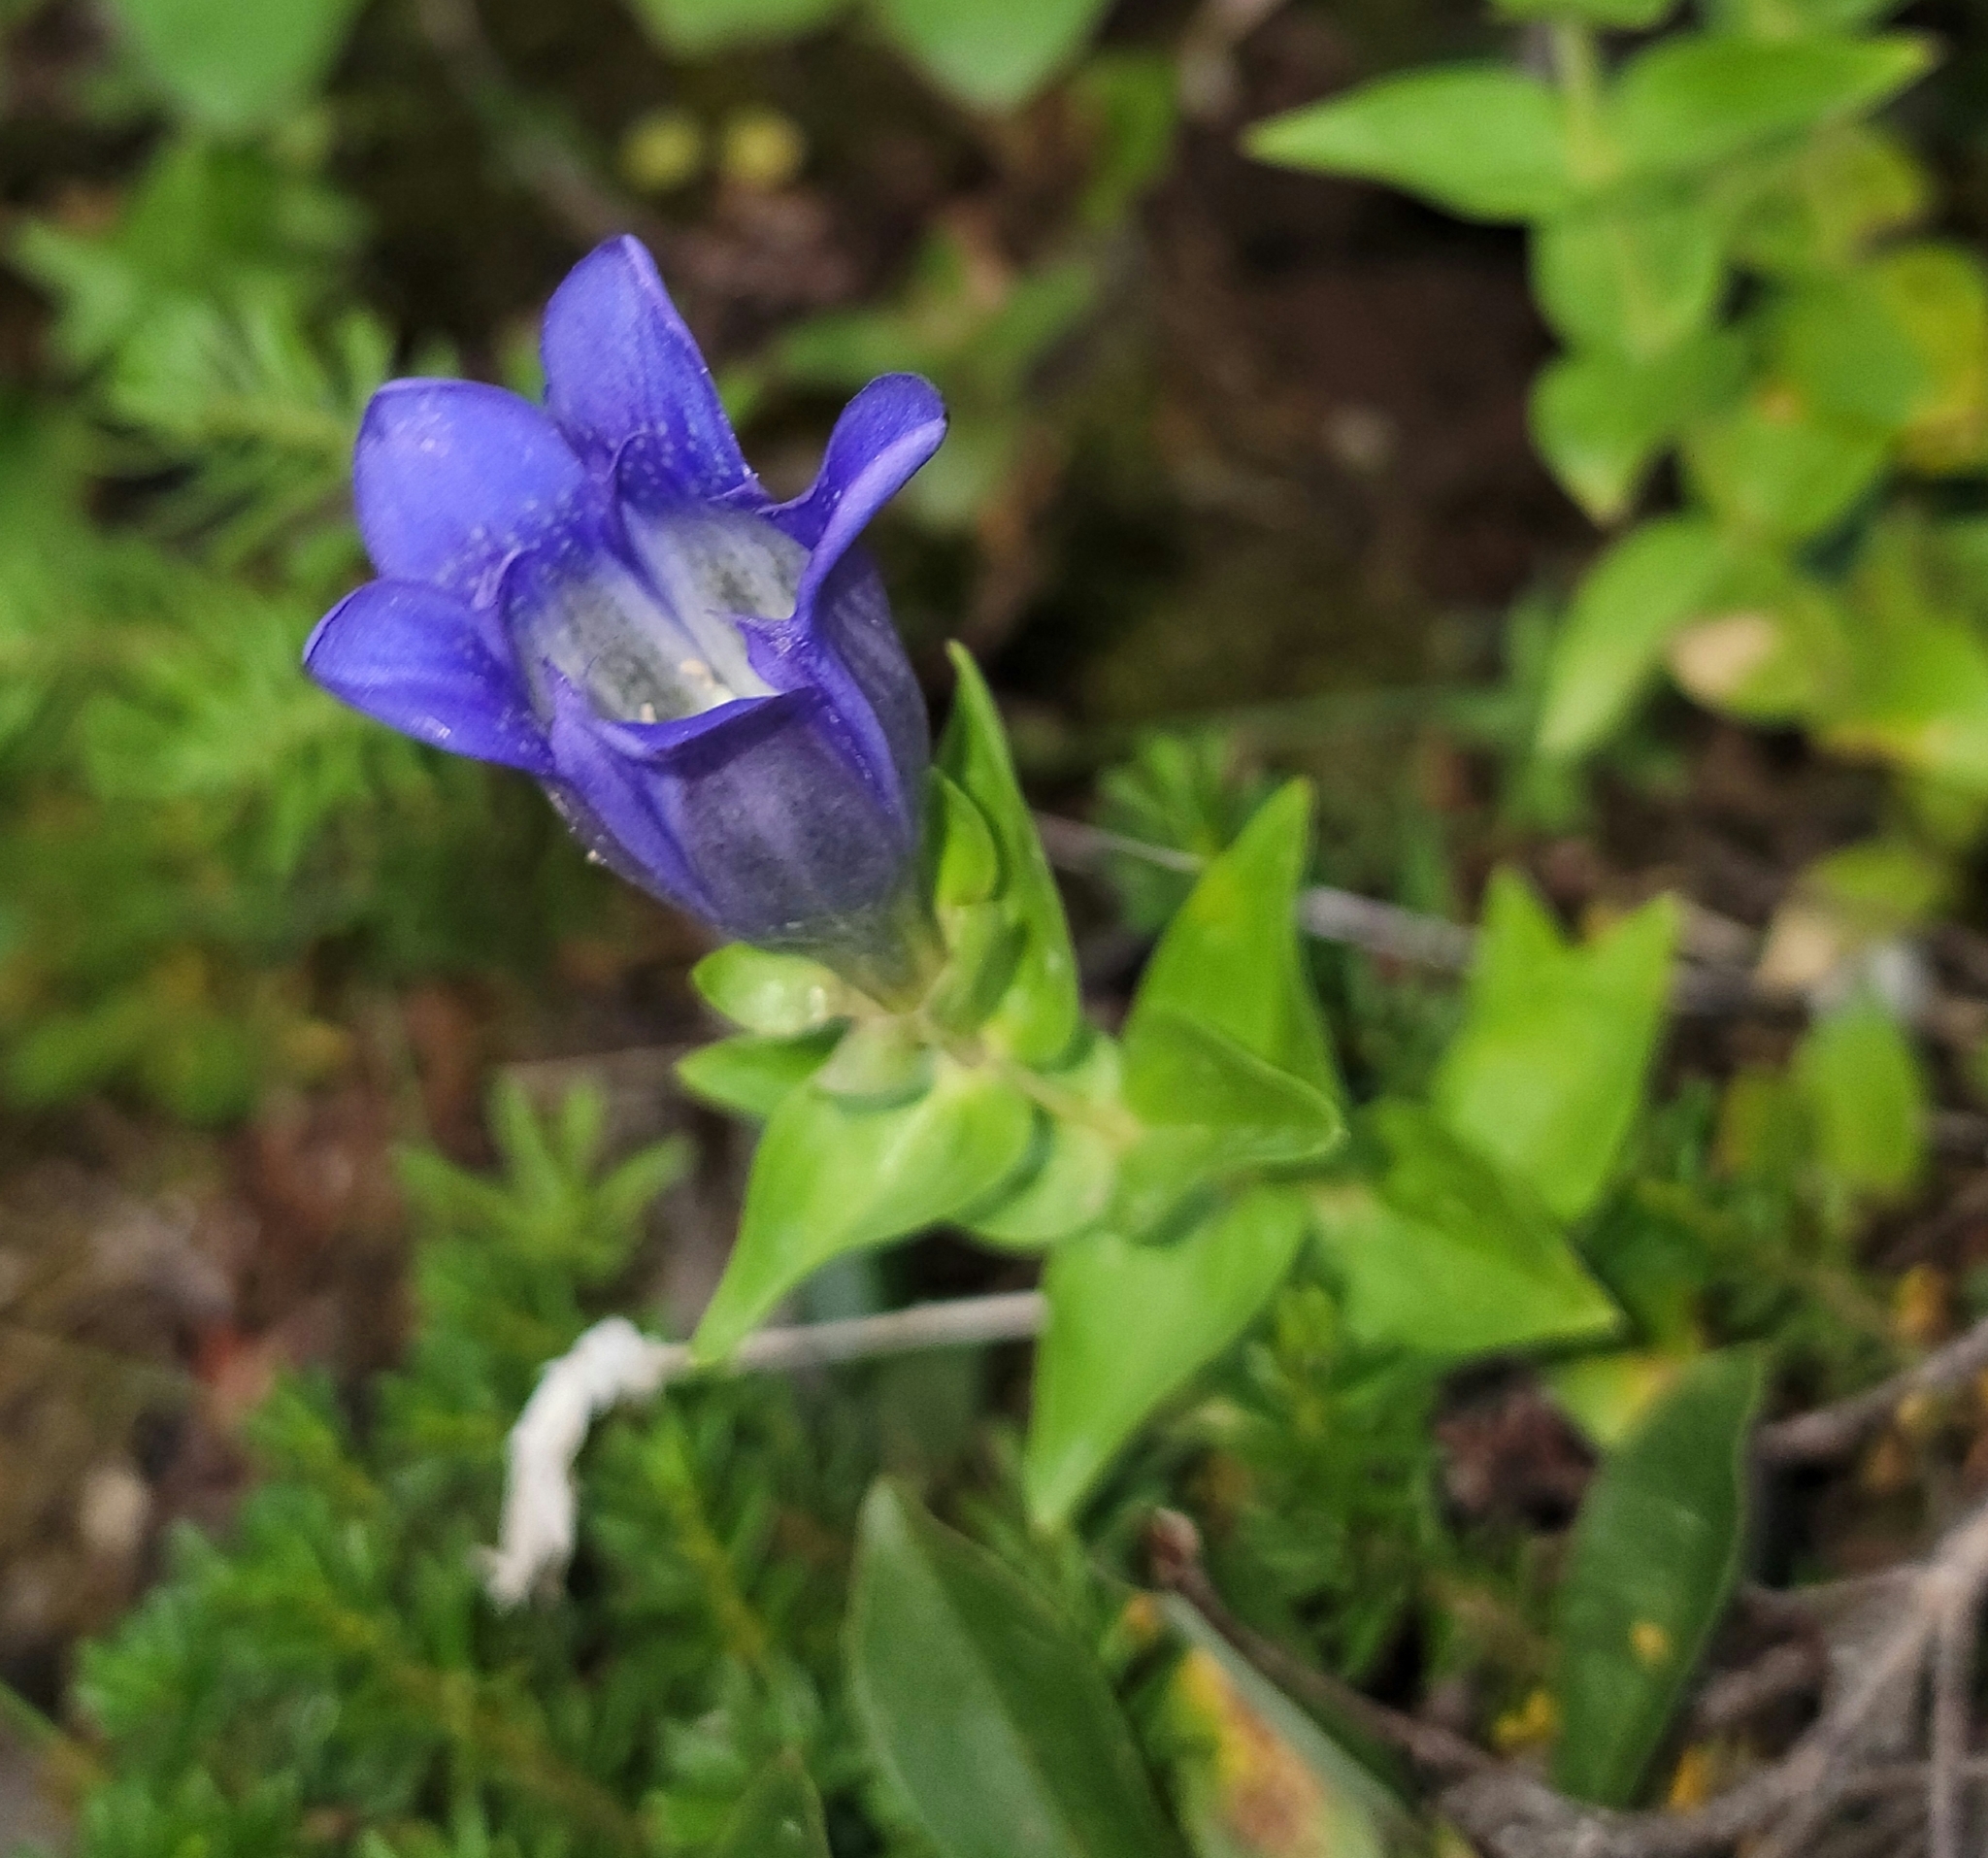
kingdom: Plantae
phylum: Tracheophyta
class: Magnoliopsida
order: Gentianales
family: Gentianaceae
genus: Gentiana
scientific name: Gentiana calycosa
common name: Rainier pleated gentian
